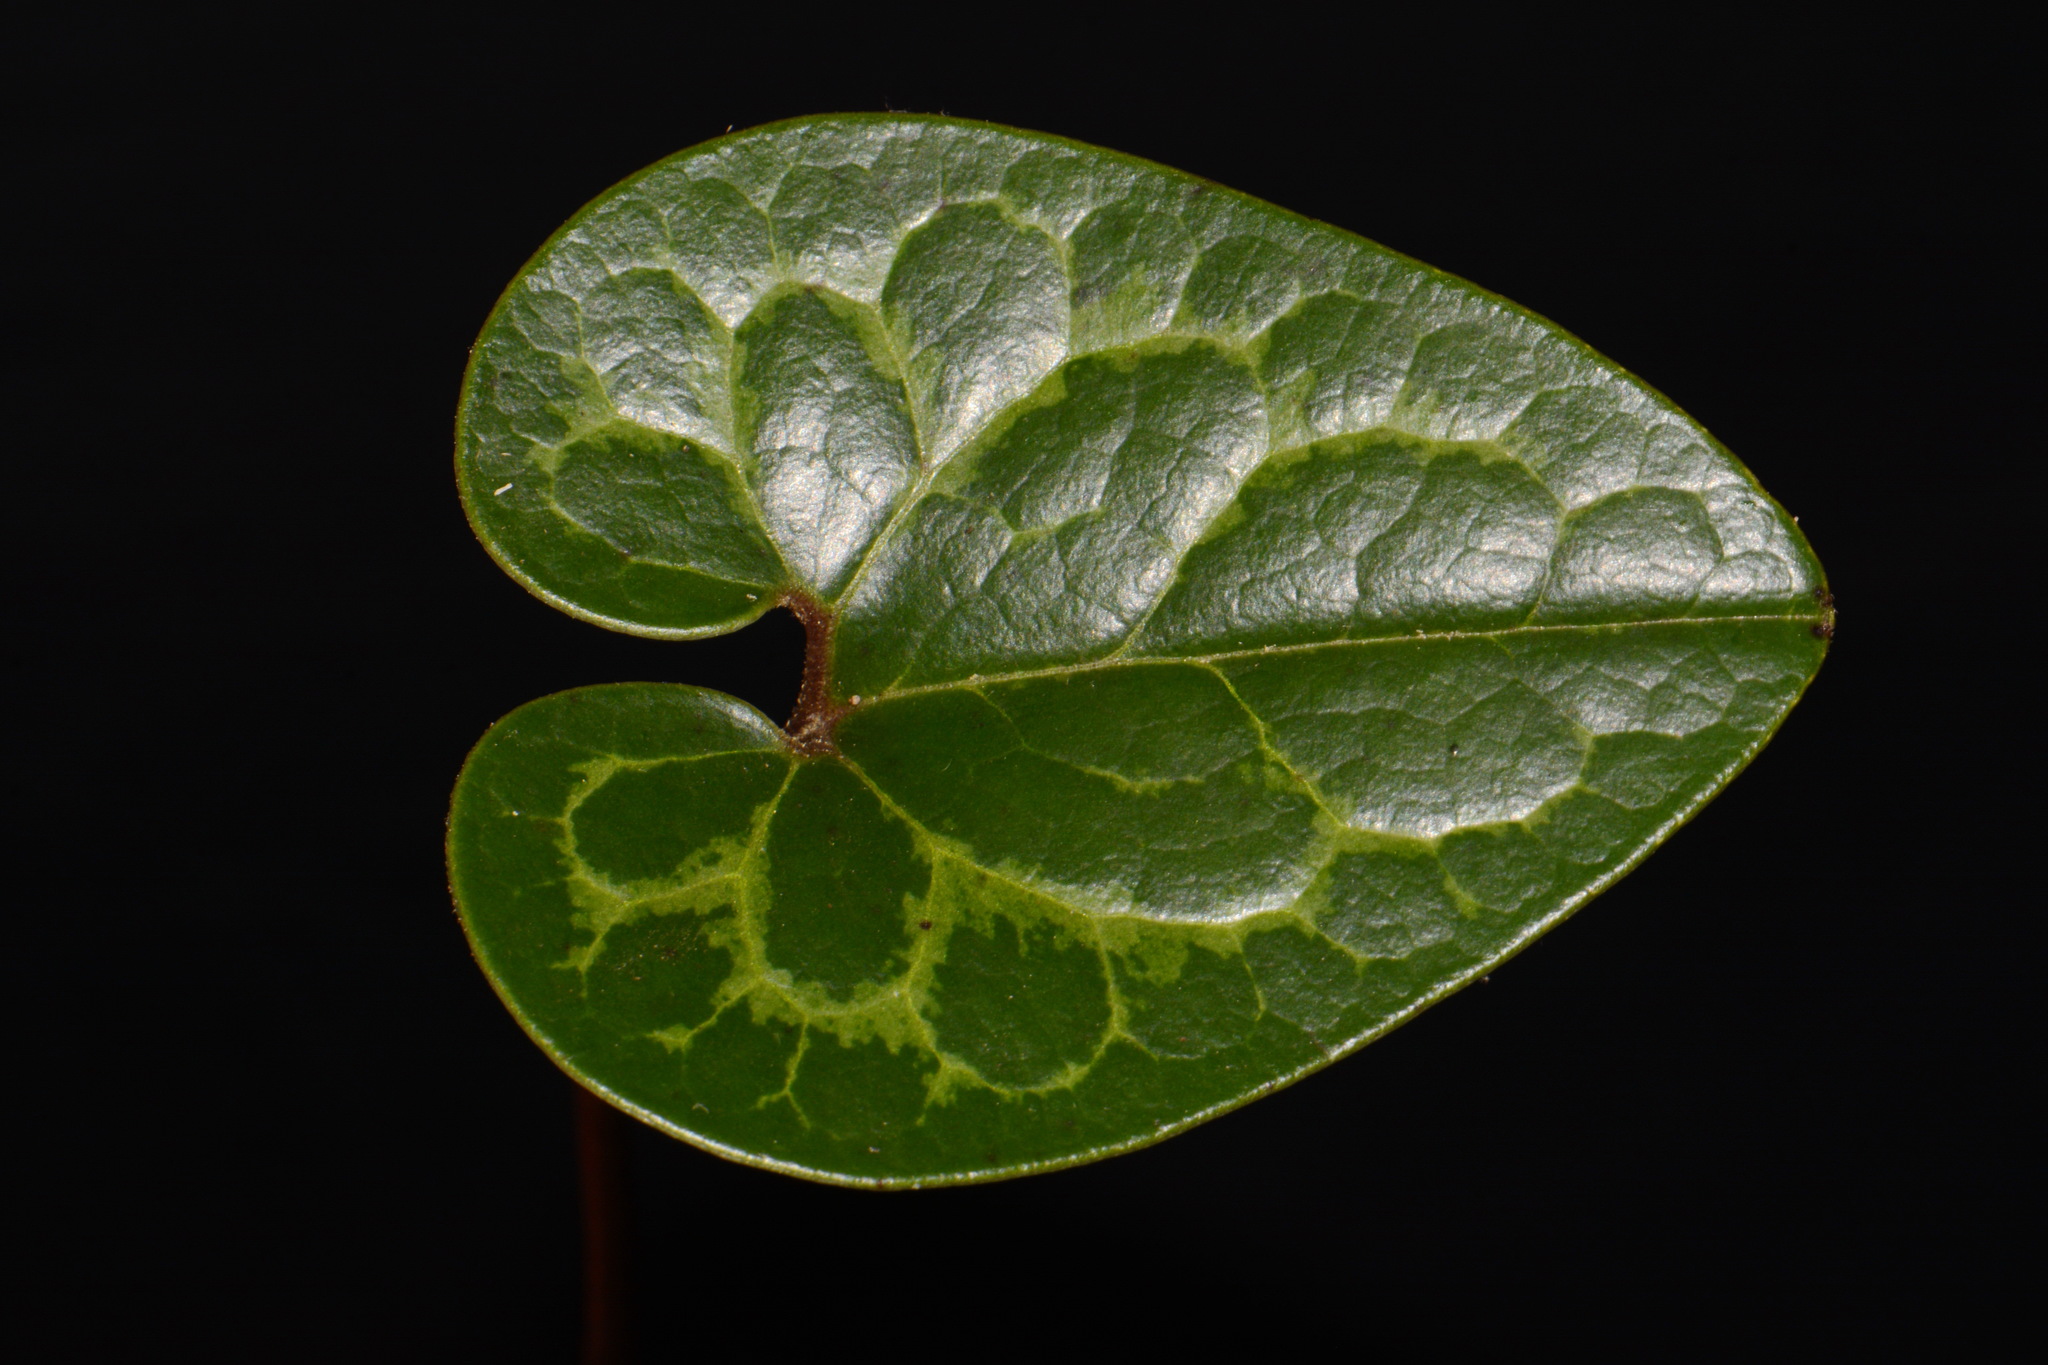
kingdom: Plantae
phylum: Tracheophyta
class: Magnoliopsida
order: Piperales
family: Aristolochiaceae
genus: Hexastylis
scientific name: Hexastylis heterophylla
